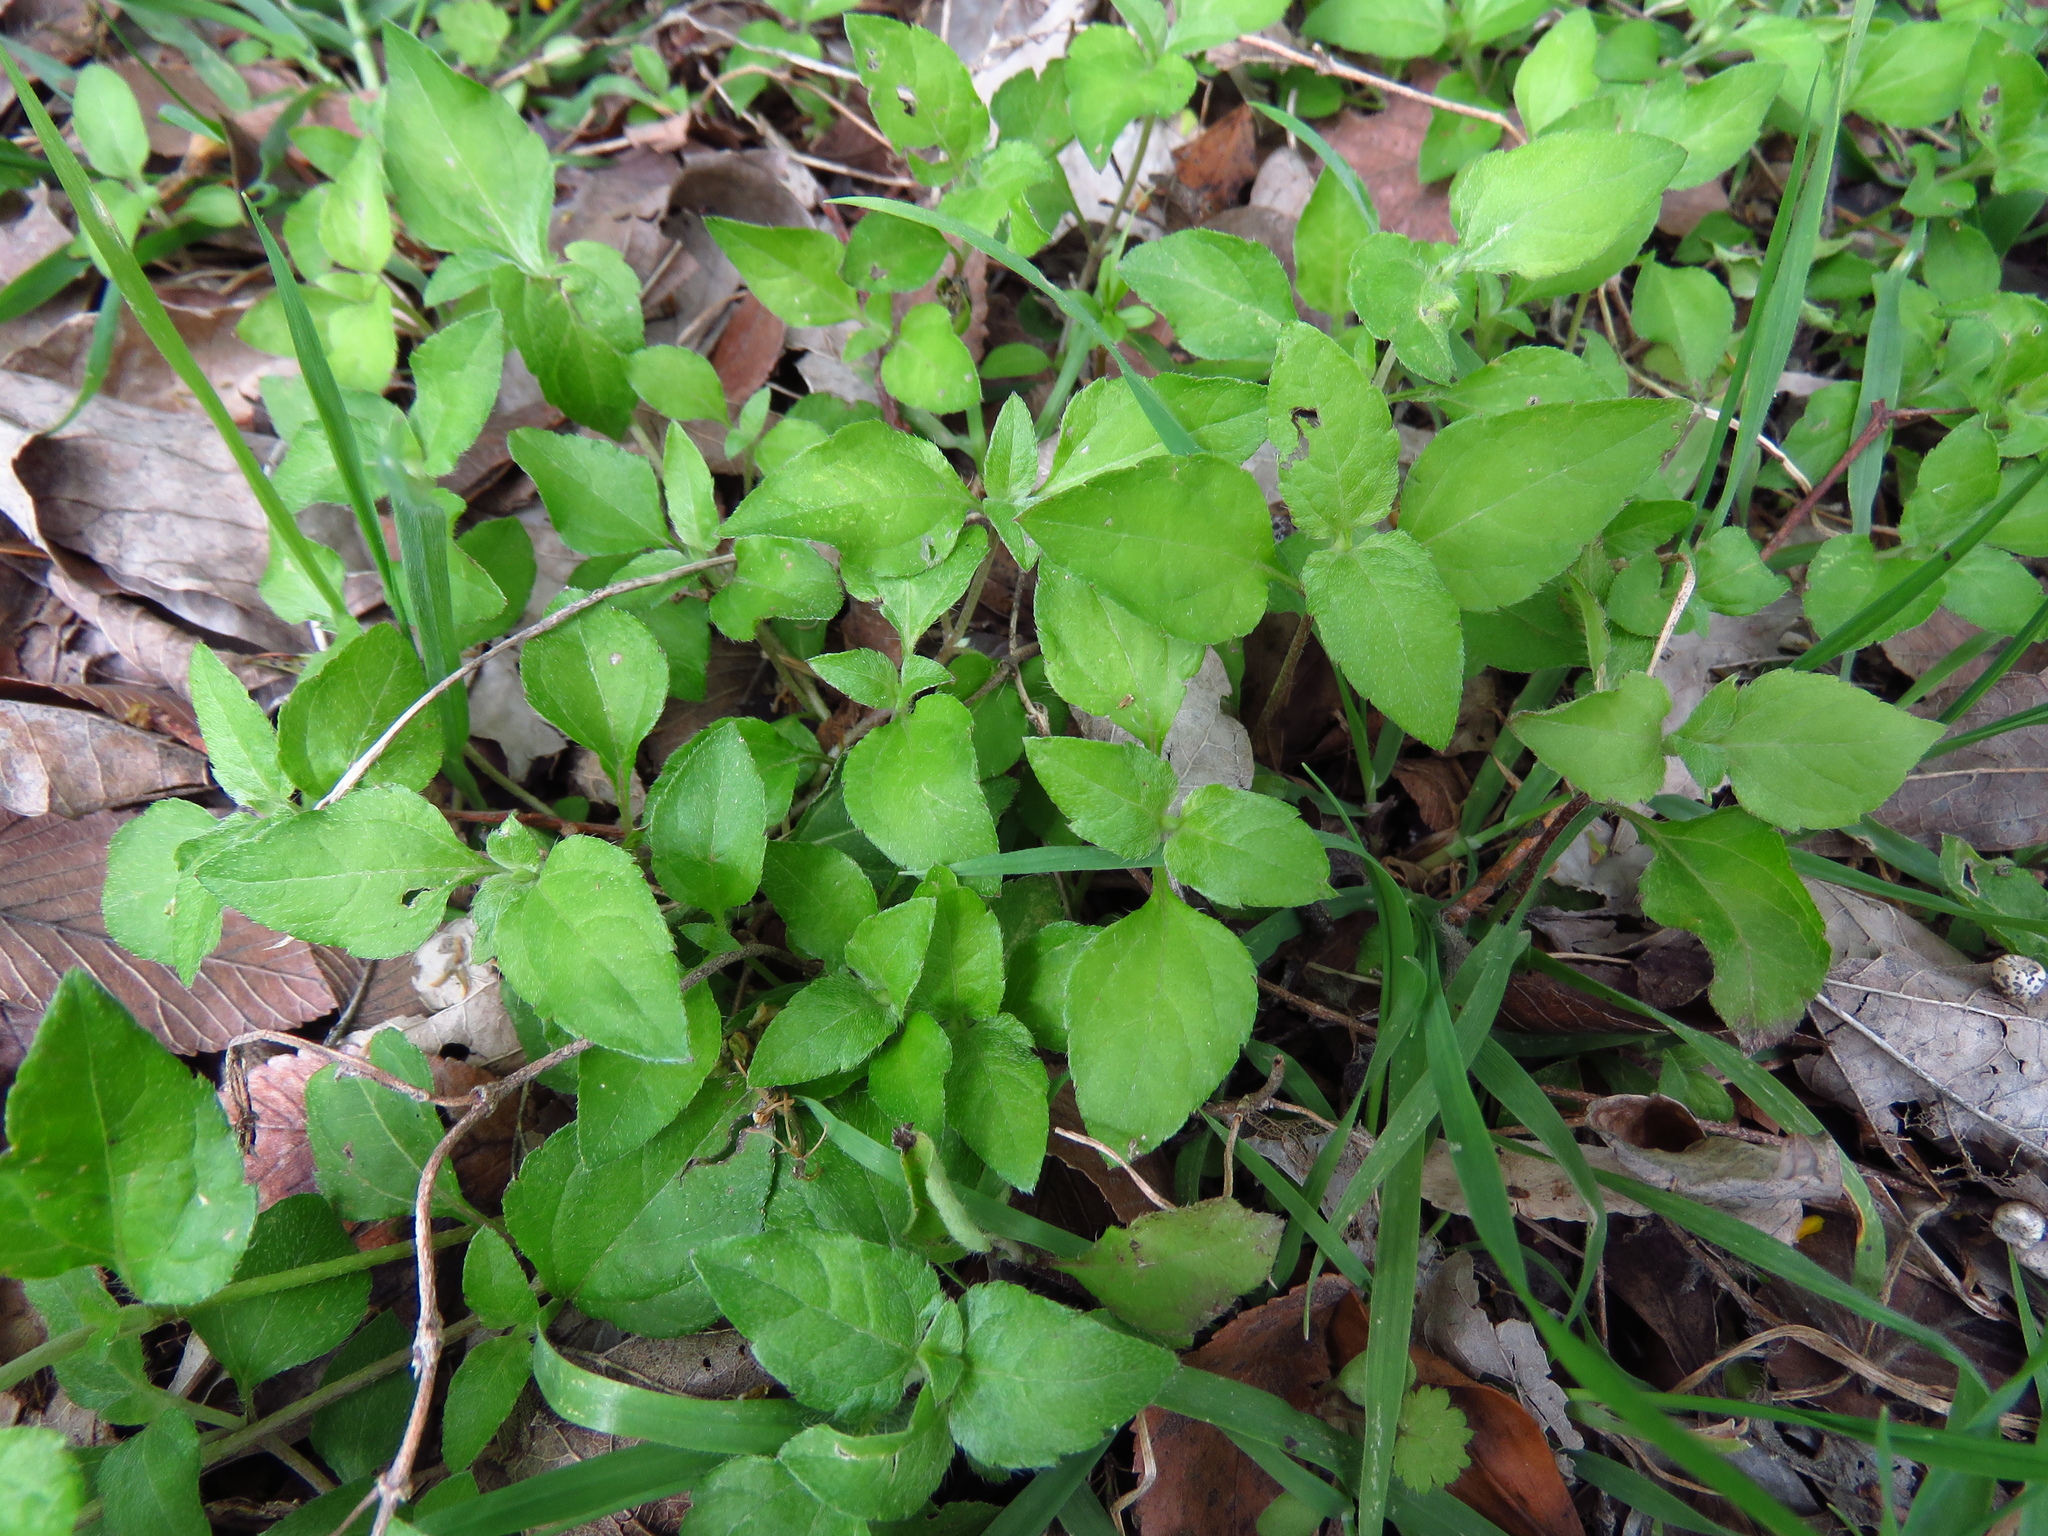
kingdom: Plantae
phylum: Tracheophyta
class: Magnoliopsida
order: Asterales
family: Asteraceae
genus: Calyptocarpus
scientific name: Calyptocarpus vialis
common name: Straggler daisy
